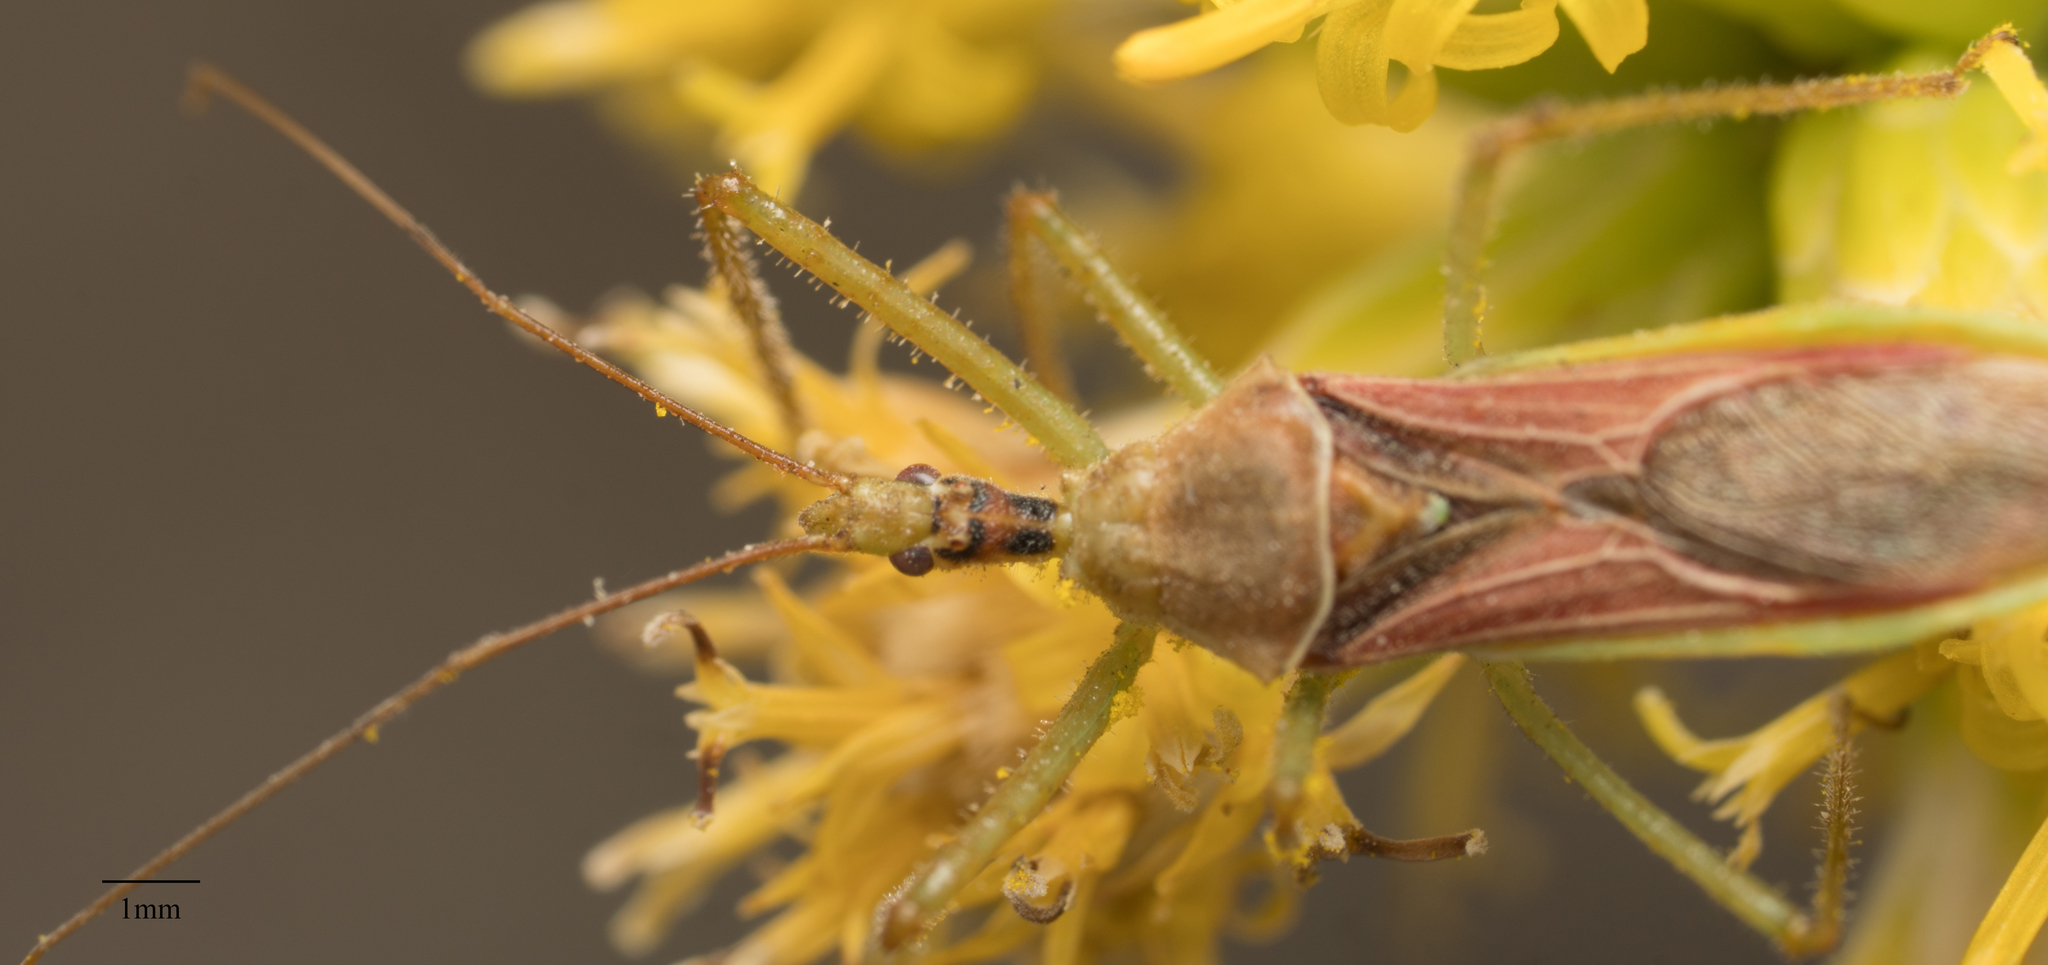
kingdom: Animalia
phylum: Arthropoda
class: Insecta
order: Hemiptera
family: Reduviidae
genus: Zelus
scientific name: Zelus renardii
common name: Assassin bug
